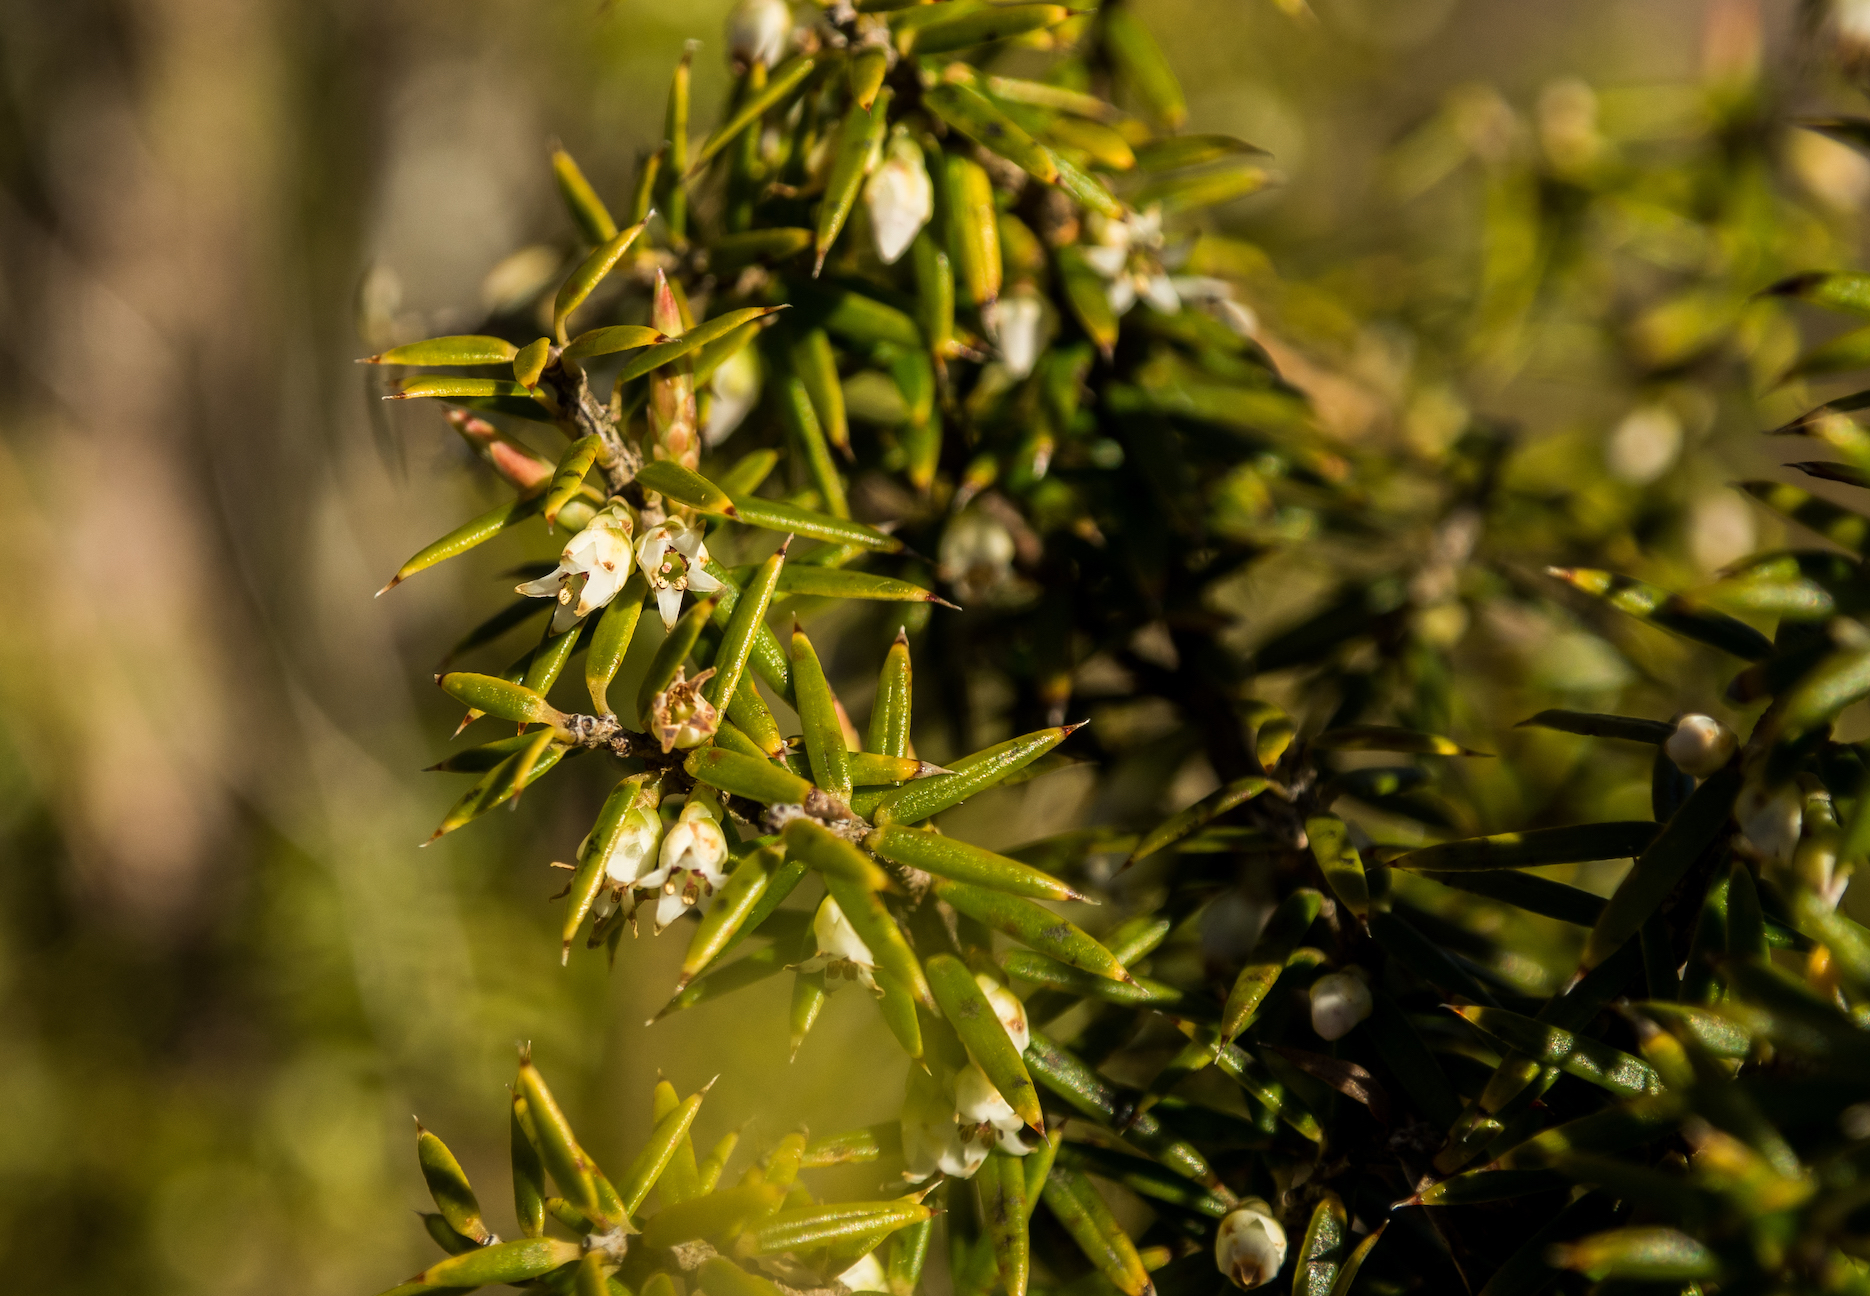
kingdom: Plantae
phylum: Tracheophyta
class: Magnoliopsida
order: Ericales
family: Ericaceae
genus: Leptecophylla
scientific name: Leptecophylla juniperina
